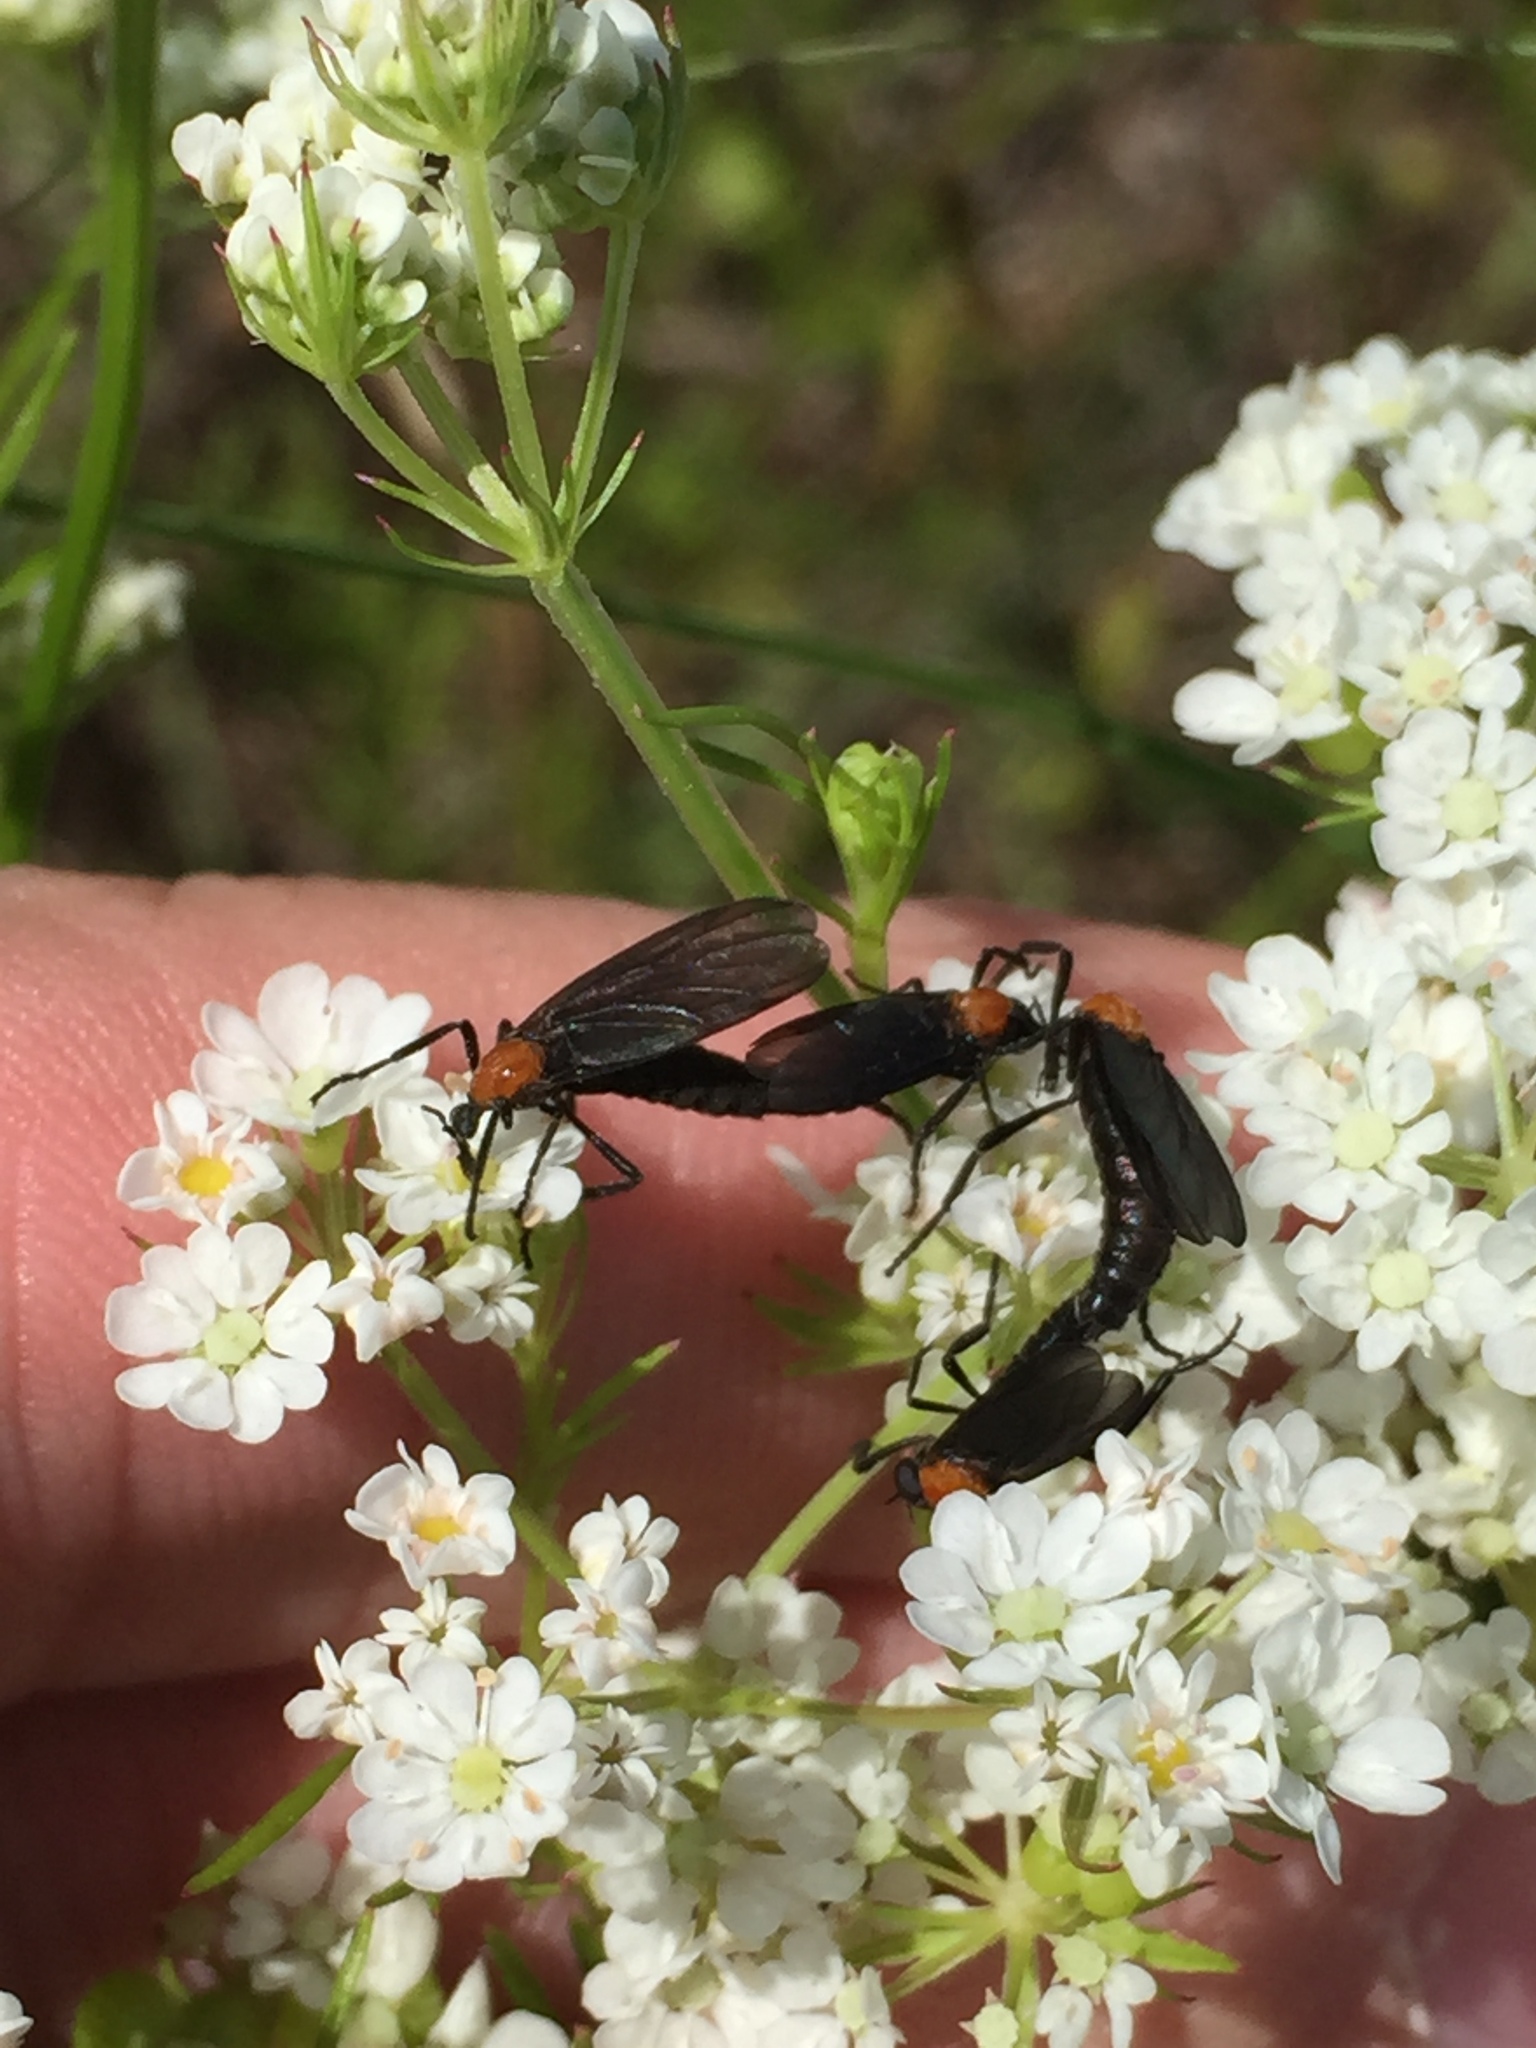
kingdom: Animalia
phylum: Arthropoda
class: Insecta
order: Diptera
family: Bibionidae
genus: Plecia
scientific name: Plecia nearctica
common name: March fly
